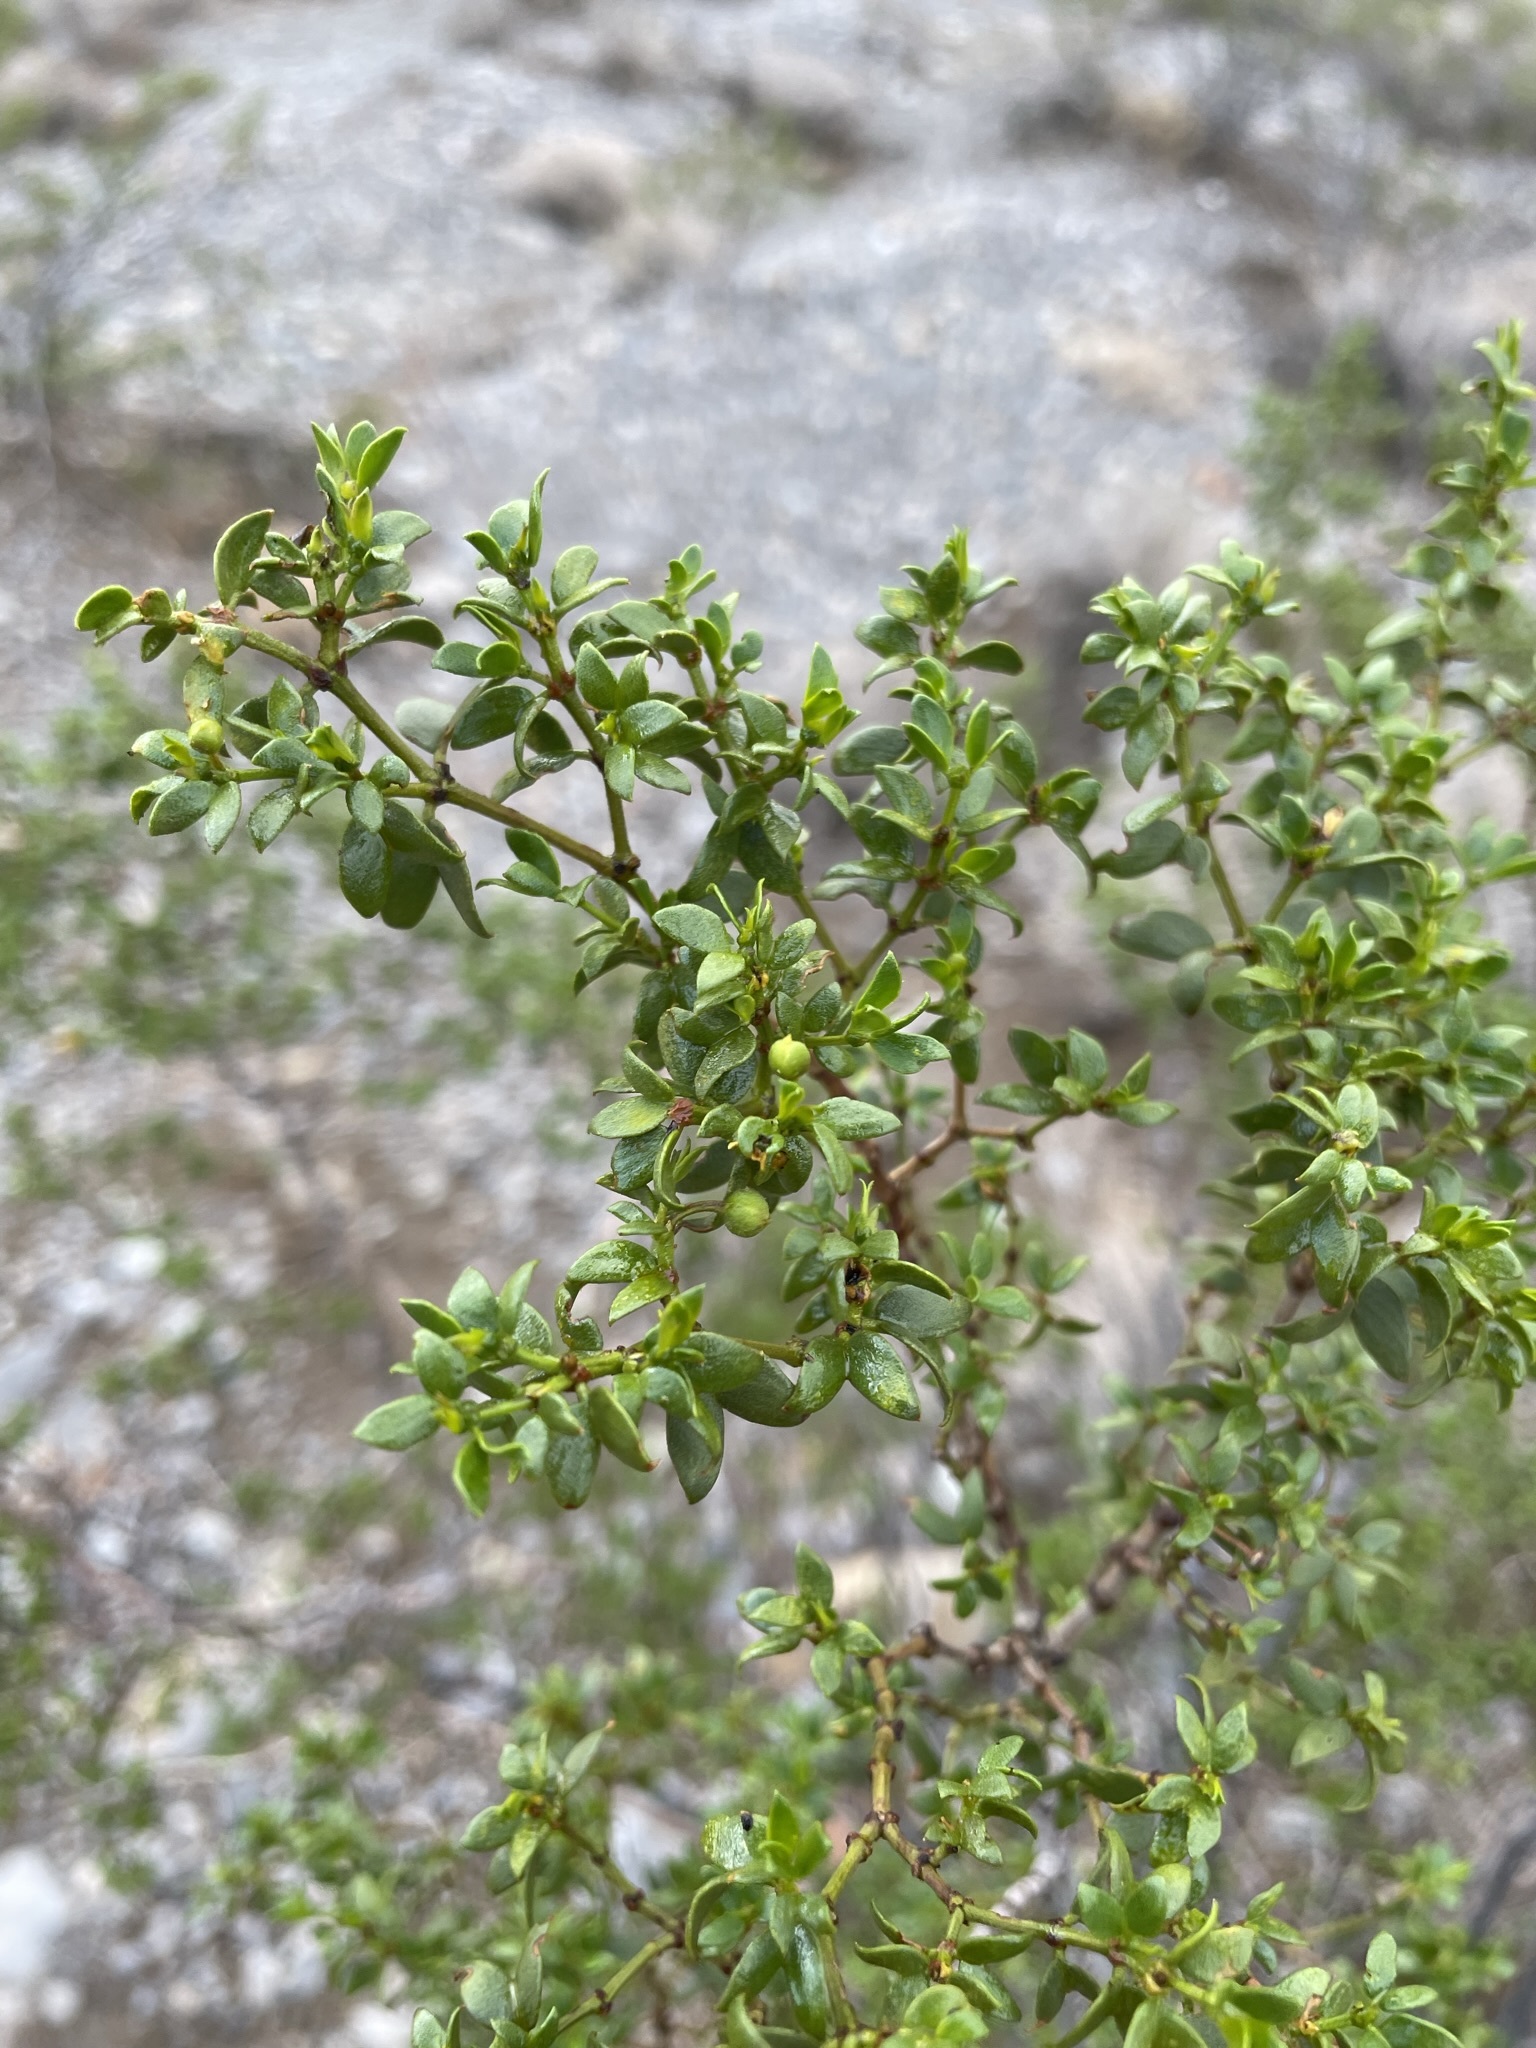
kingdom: Plantae
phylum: Tracheophyta
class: Magnoliopsida
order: Zygophyllales
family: Zygophyllaceae
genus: Larrea
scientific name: Larrea tridentata
